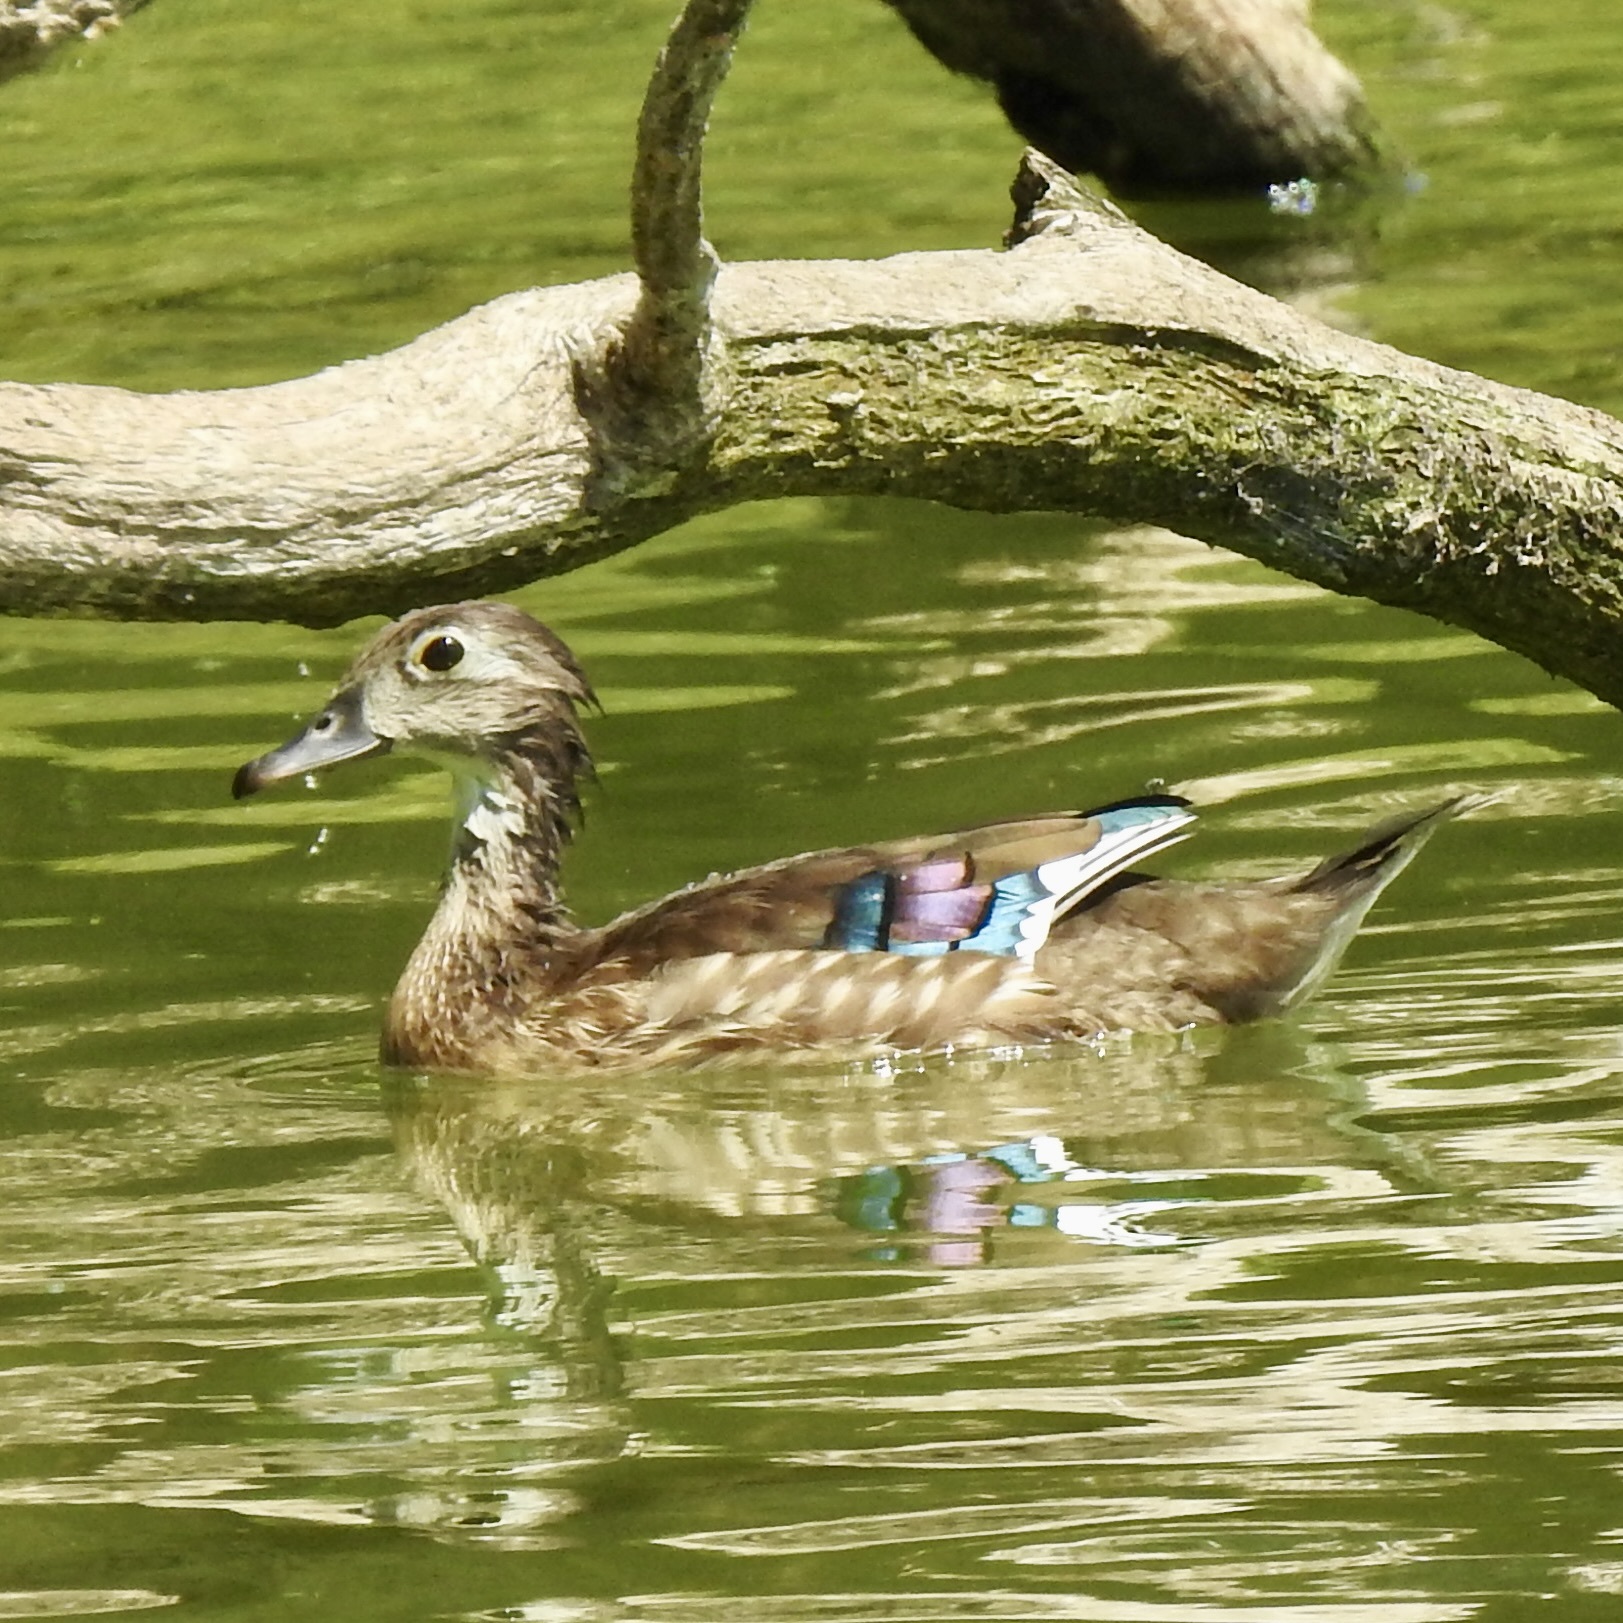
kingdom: Animalia
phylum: Chordata
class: Aves
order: Anseriformes
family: Anatidae
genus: Aix
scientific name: Aix sponsa
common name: Wood duck
